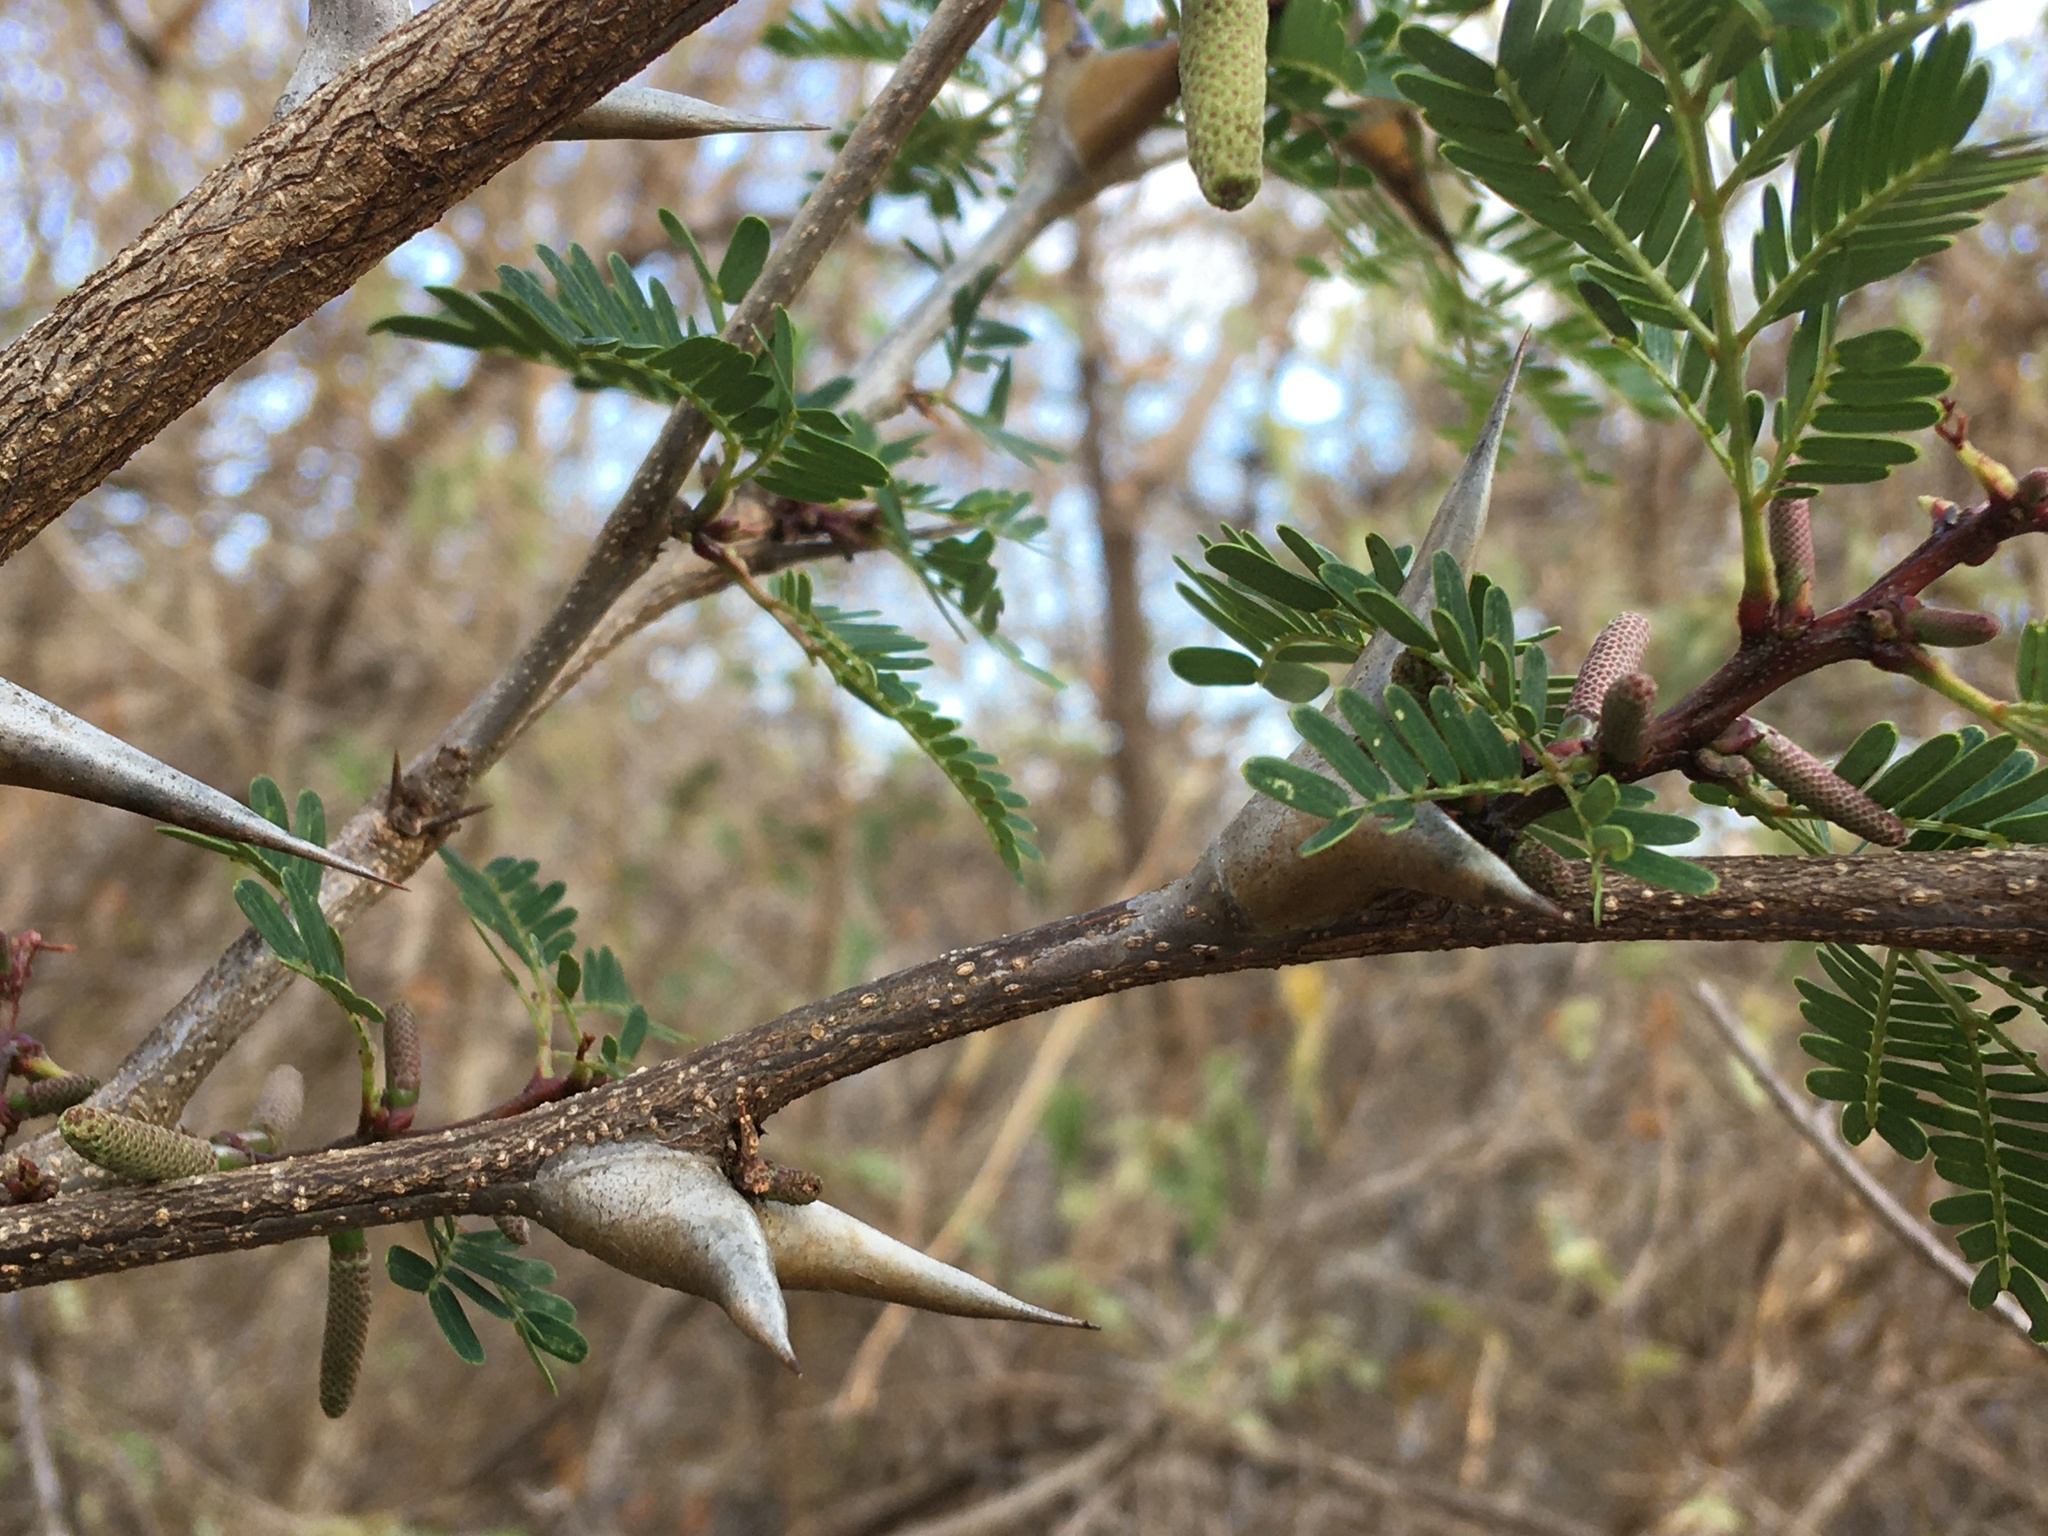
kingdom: Plantae
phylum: Tracheophyta
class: Magnoliopsida
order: Fabales
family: Fabaceae
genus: Vachellia
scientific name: Vachellia collinsii
